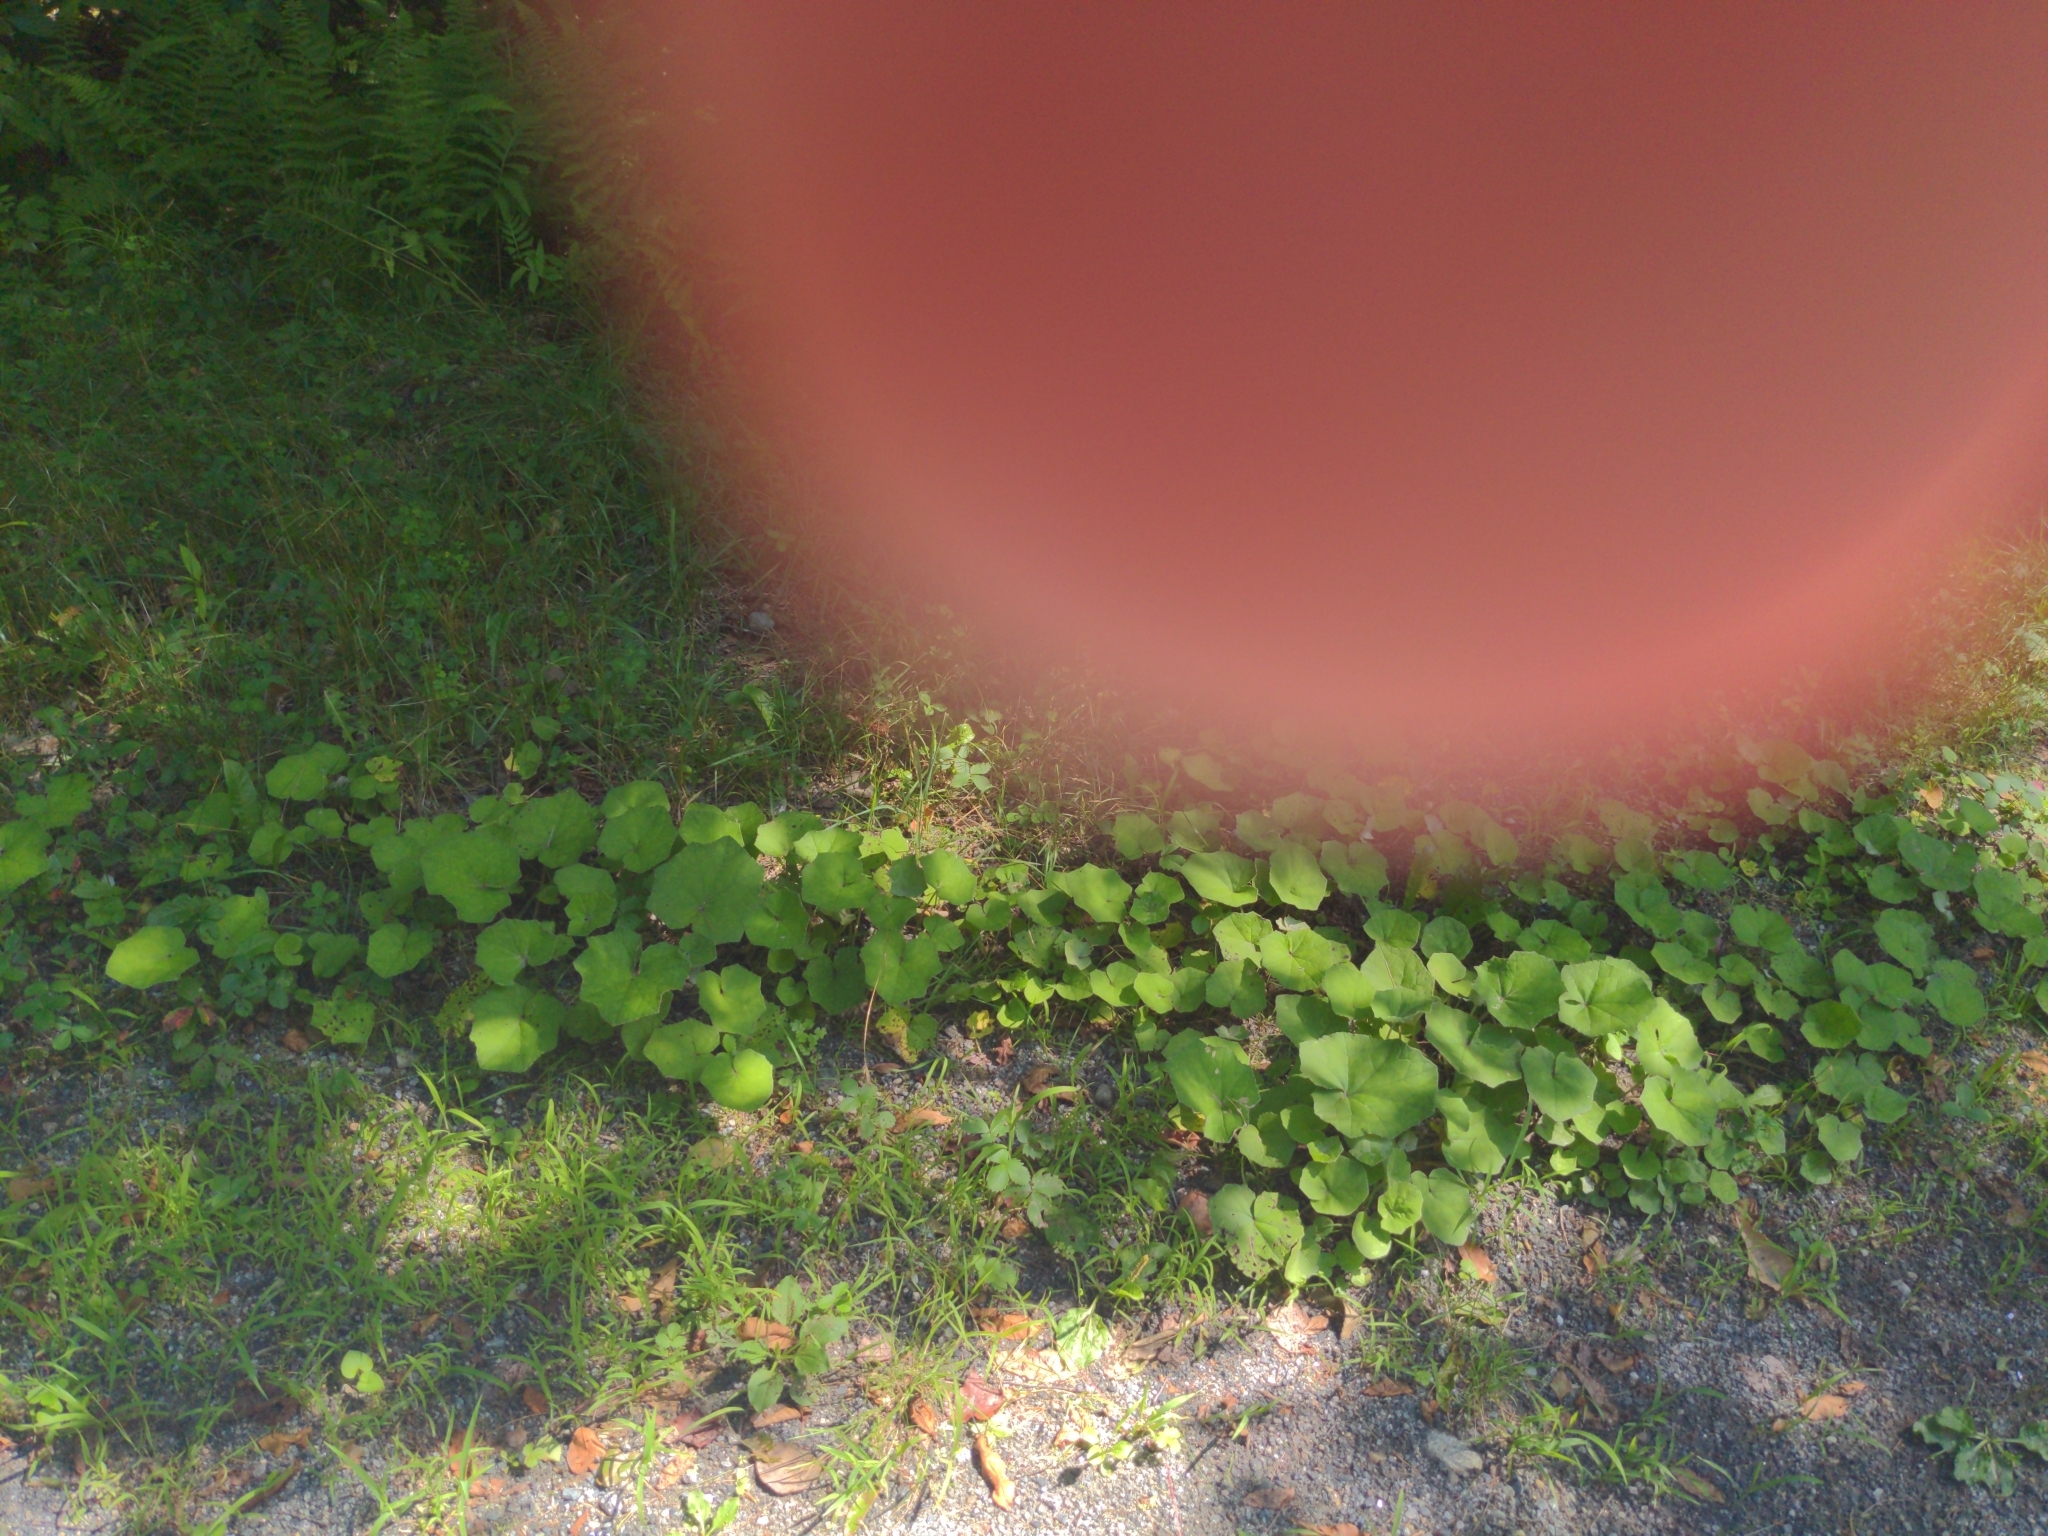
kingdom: Plantae
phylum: Tracheophyta
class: Magnoliopsida
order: Asterales
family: Asteraceae
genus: Tussilago
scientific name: Tussilago farfara
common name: Coltsfoot
